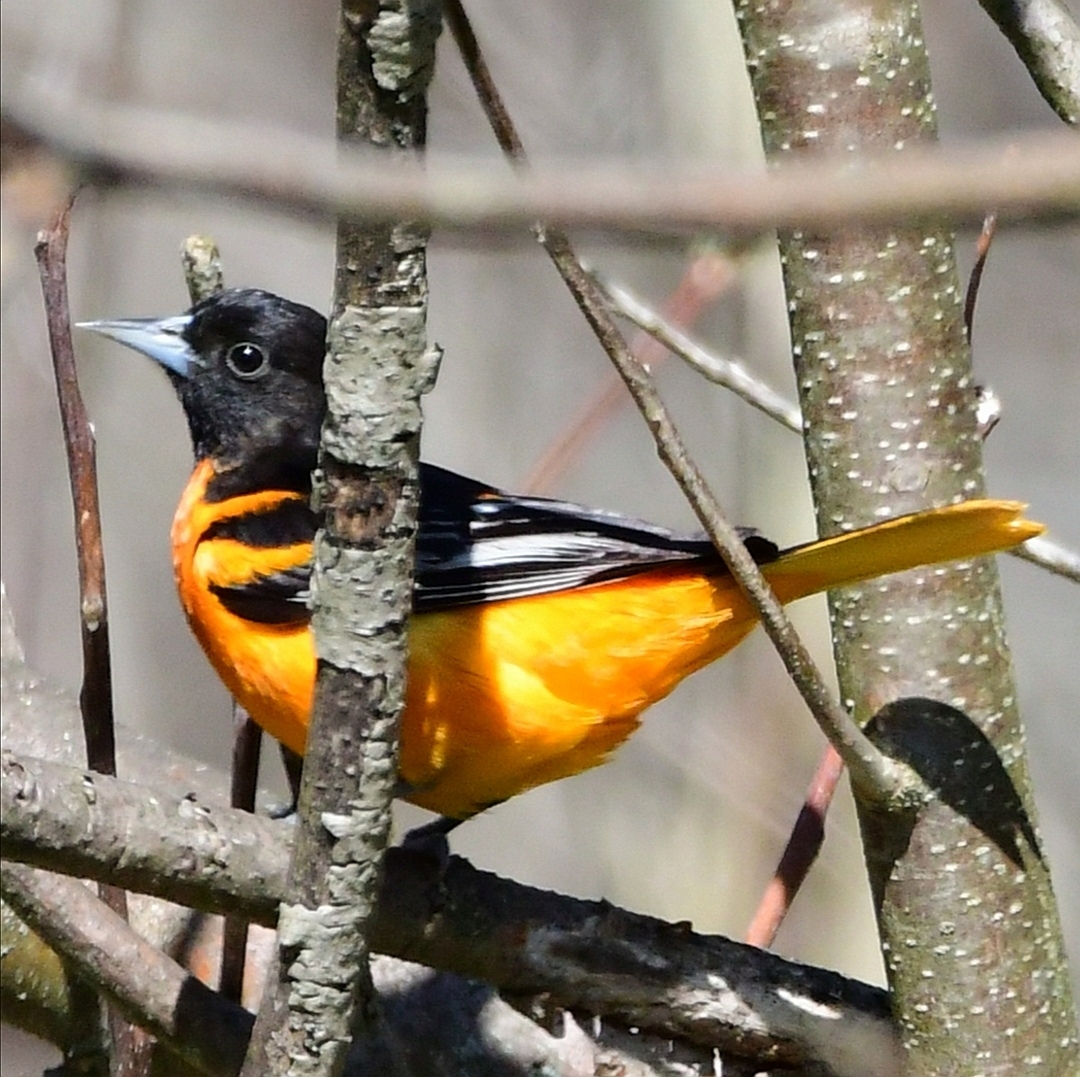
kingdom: Animalia
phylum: Chordata
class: Aves
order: Passeriformes
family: Icteridae
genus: Icterus
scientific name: Icterus galbula
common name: Baltimore oriole
